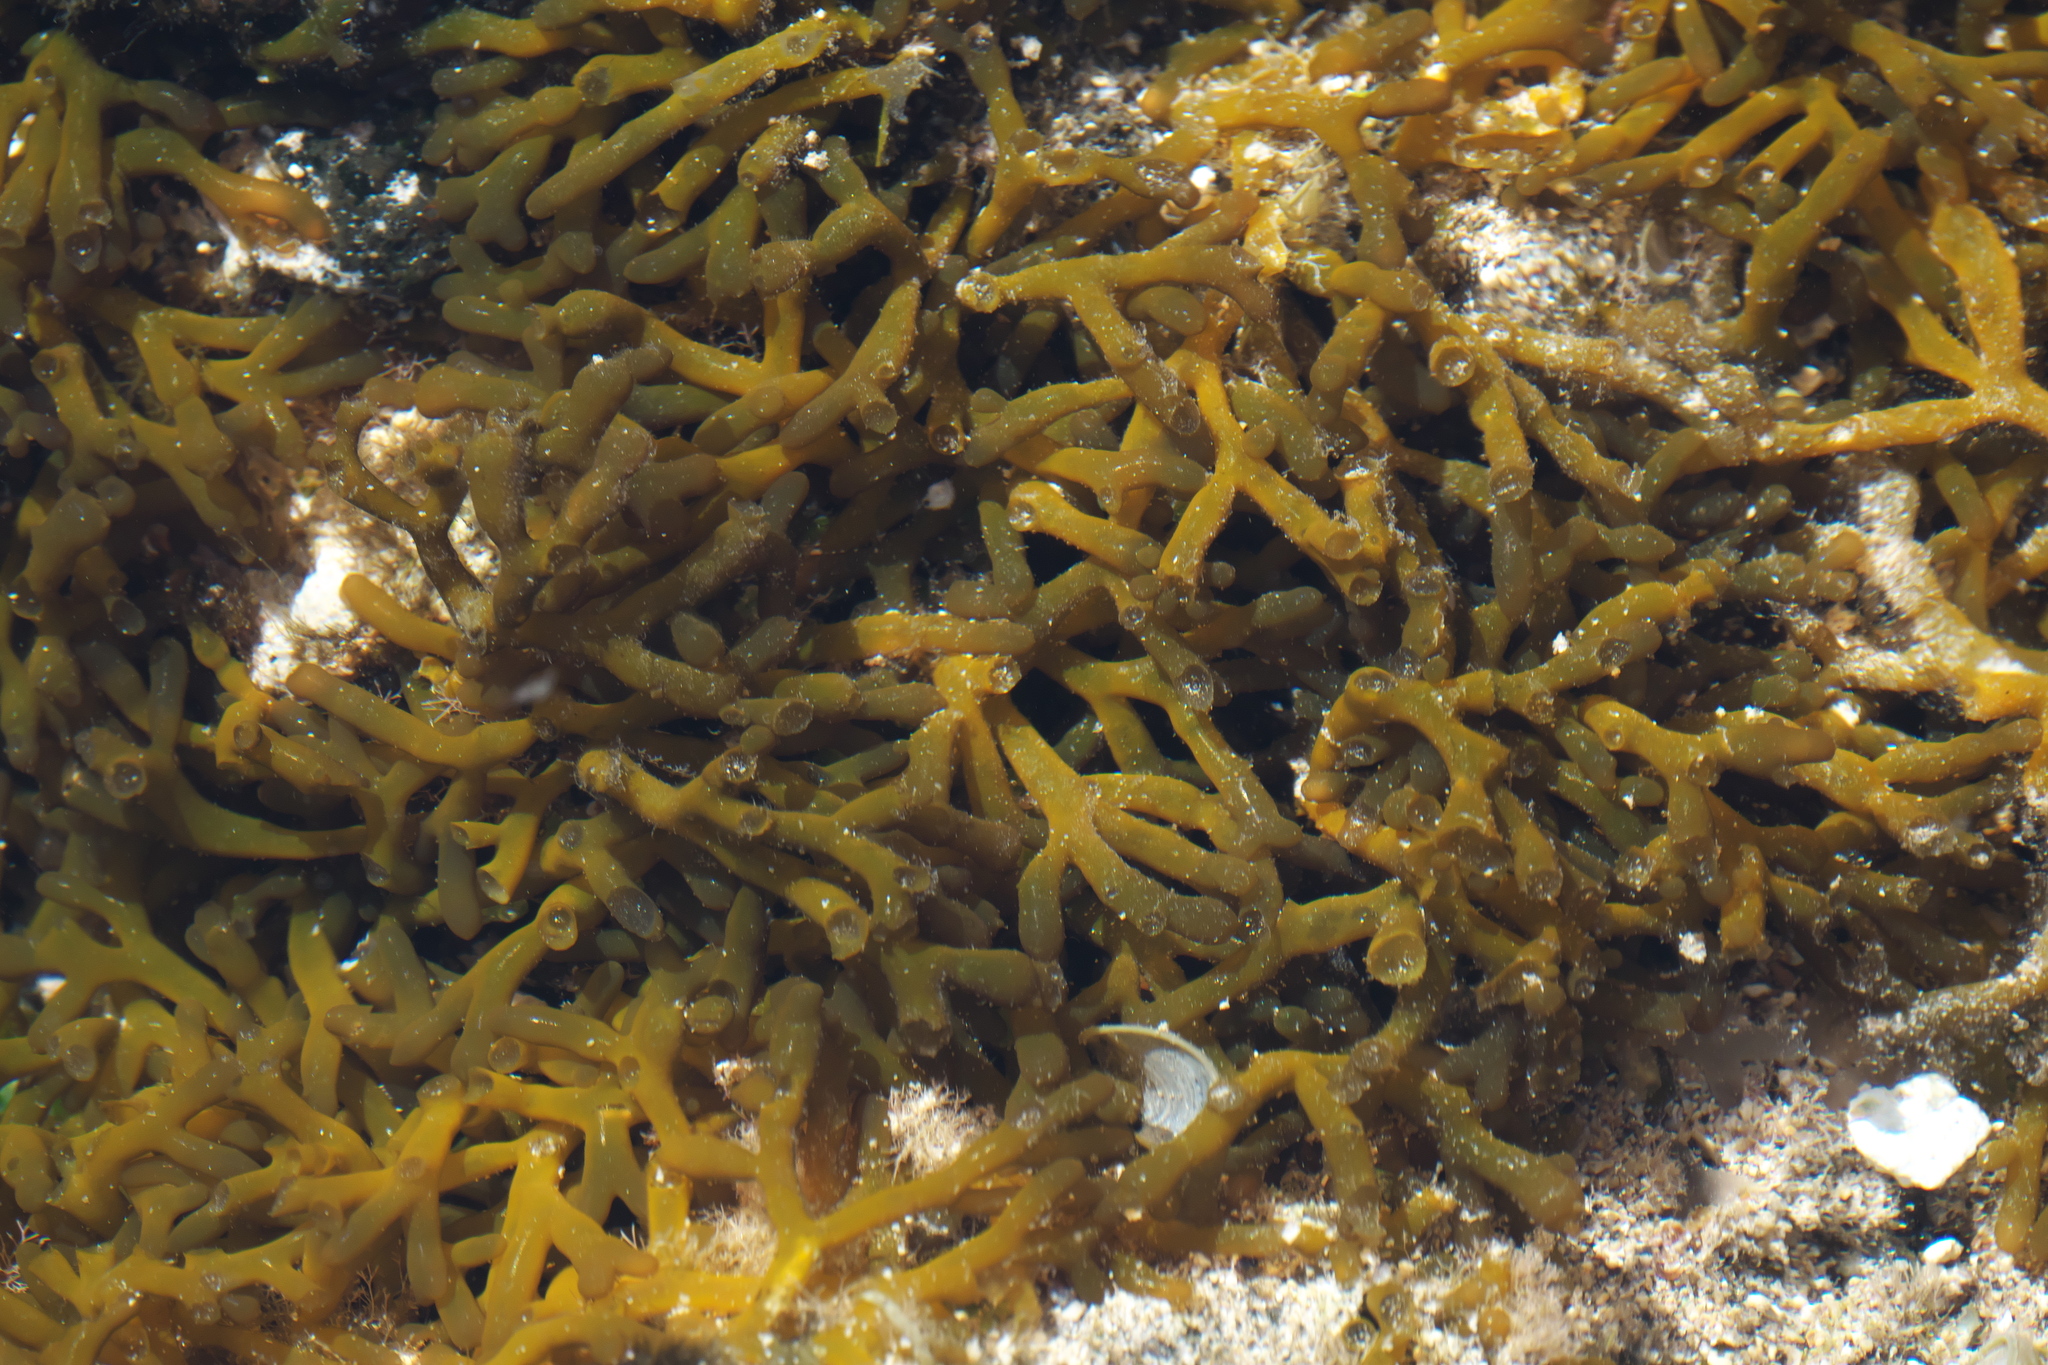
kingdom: Plantae
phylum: Rhodophyta
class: Florideophyceae
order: Gracilariales
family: Gracilariaceae
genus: Gracilaria
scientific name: Gracilaria salicornia
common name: Red algae
